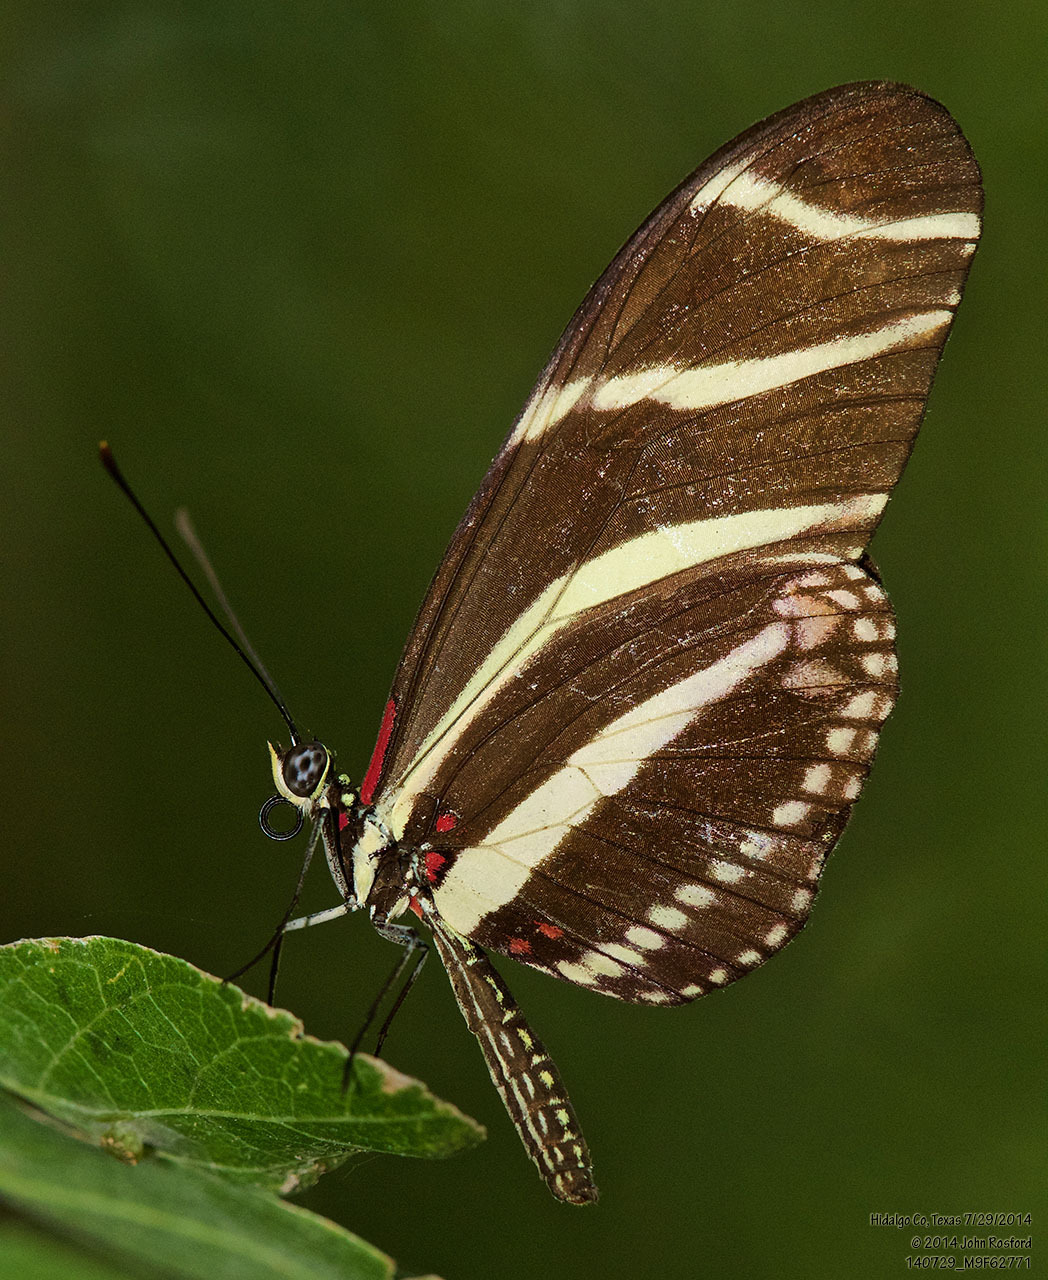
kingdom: Animalia
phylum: Arthropoda
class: Insecta
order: Lepidoptera
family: Nymphalidae
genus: Heliconius
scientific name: Heliconius charithonia
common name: Zebra long wing
